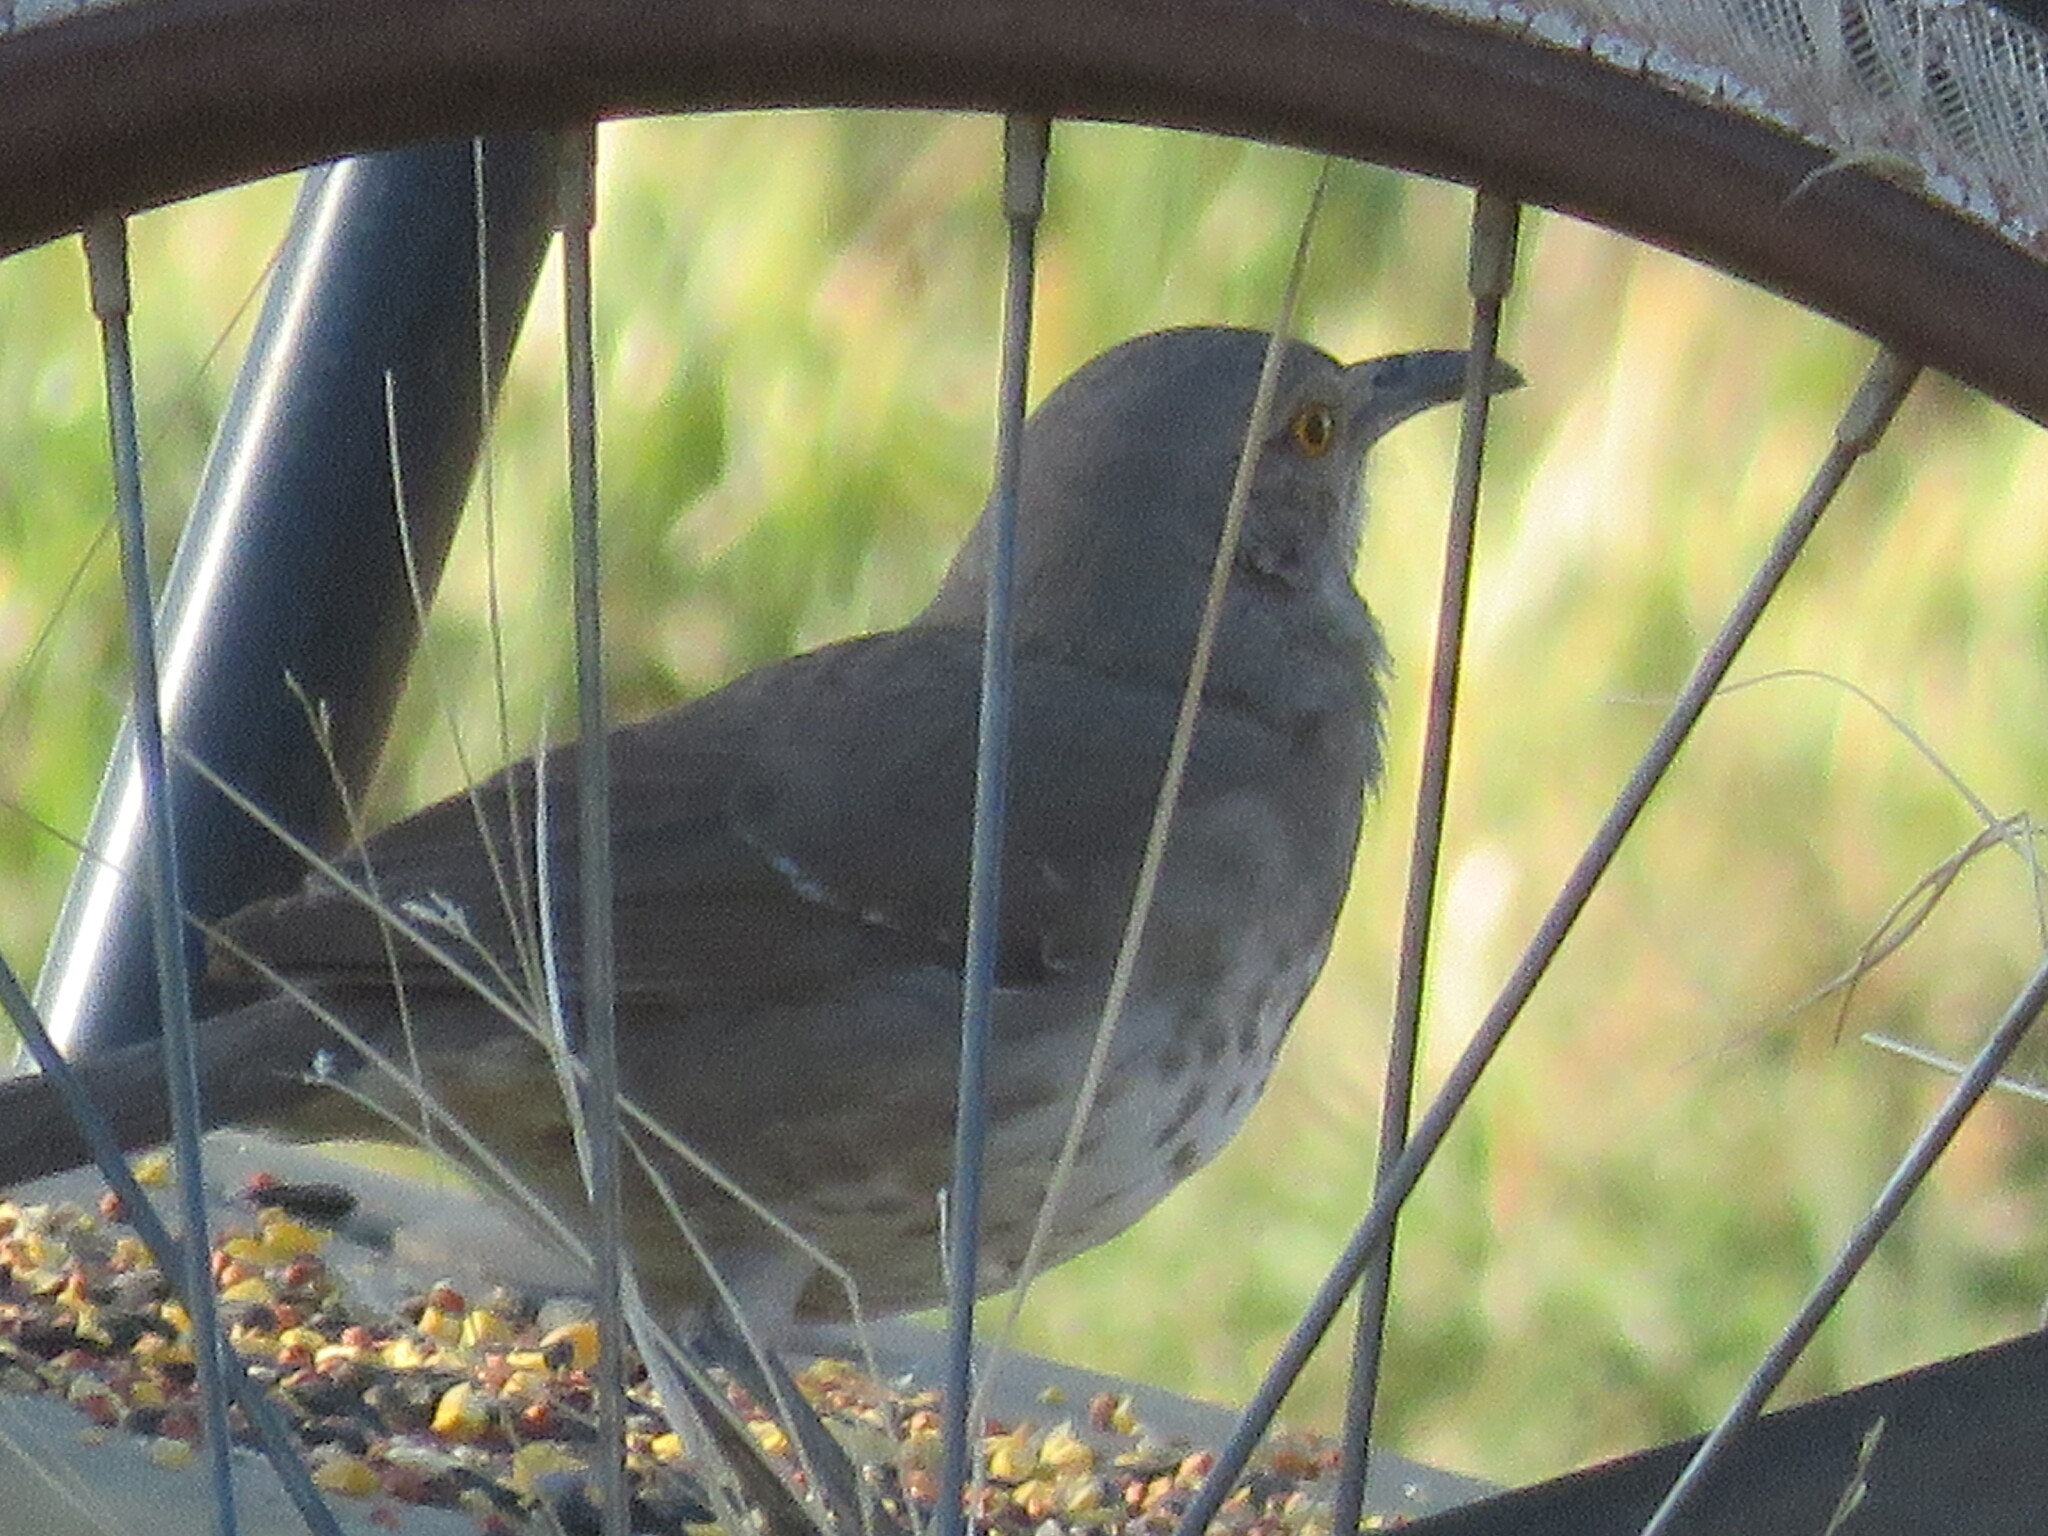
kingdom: Animalia
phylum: Chordata
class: Aves
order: Passeriformes
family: Mimidae
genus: Toxostoma
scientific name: Toxostoma curvirostre
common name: Curve-billed thrasher
